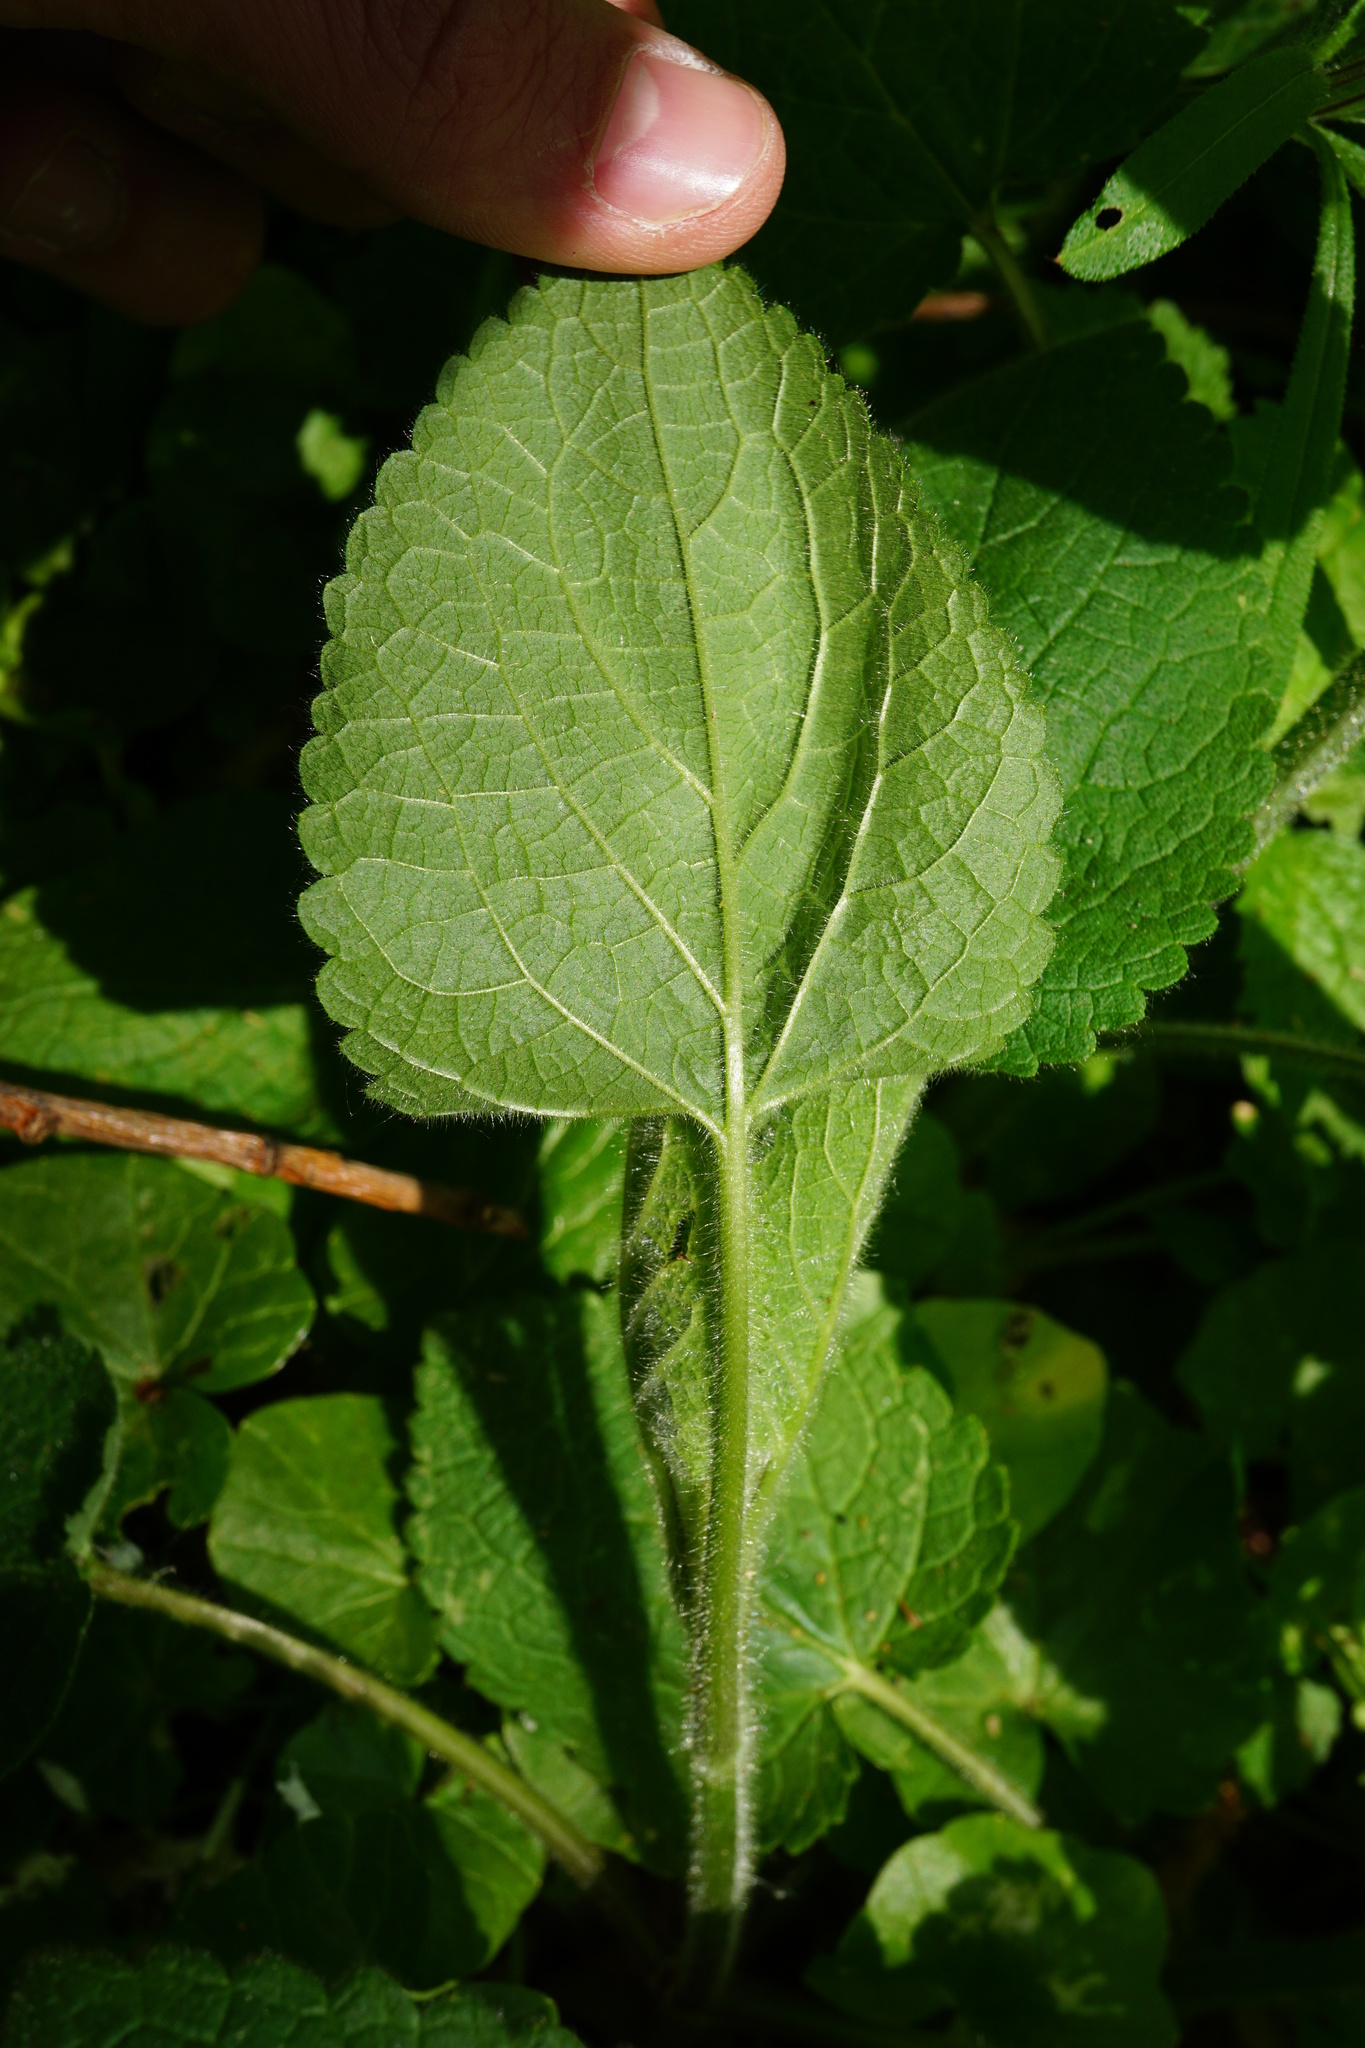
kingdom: Plantae
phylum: Tracheophyta
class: Magnoliopsida
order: Lamiales
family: Lamiaceae
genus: Stachys
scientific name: Stachys sylvatica
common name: Hedge woundwort
